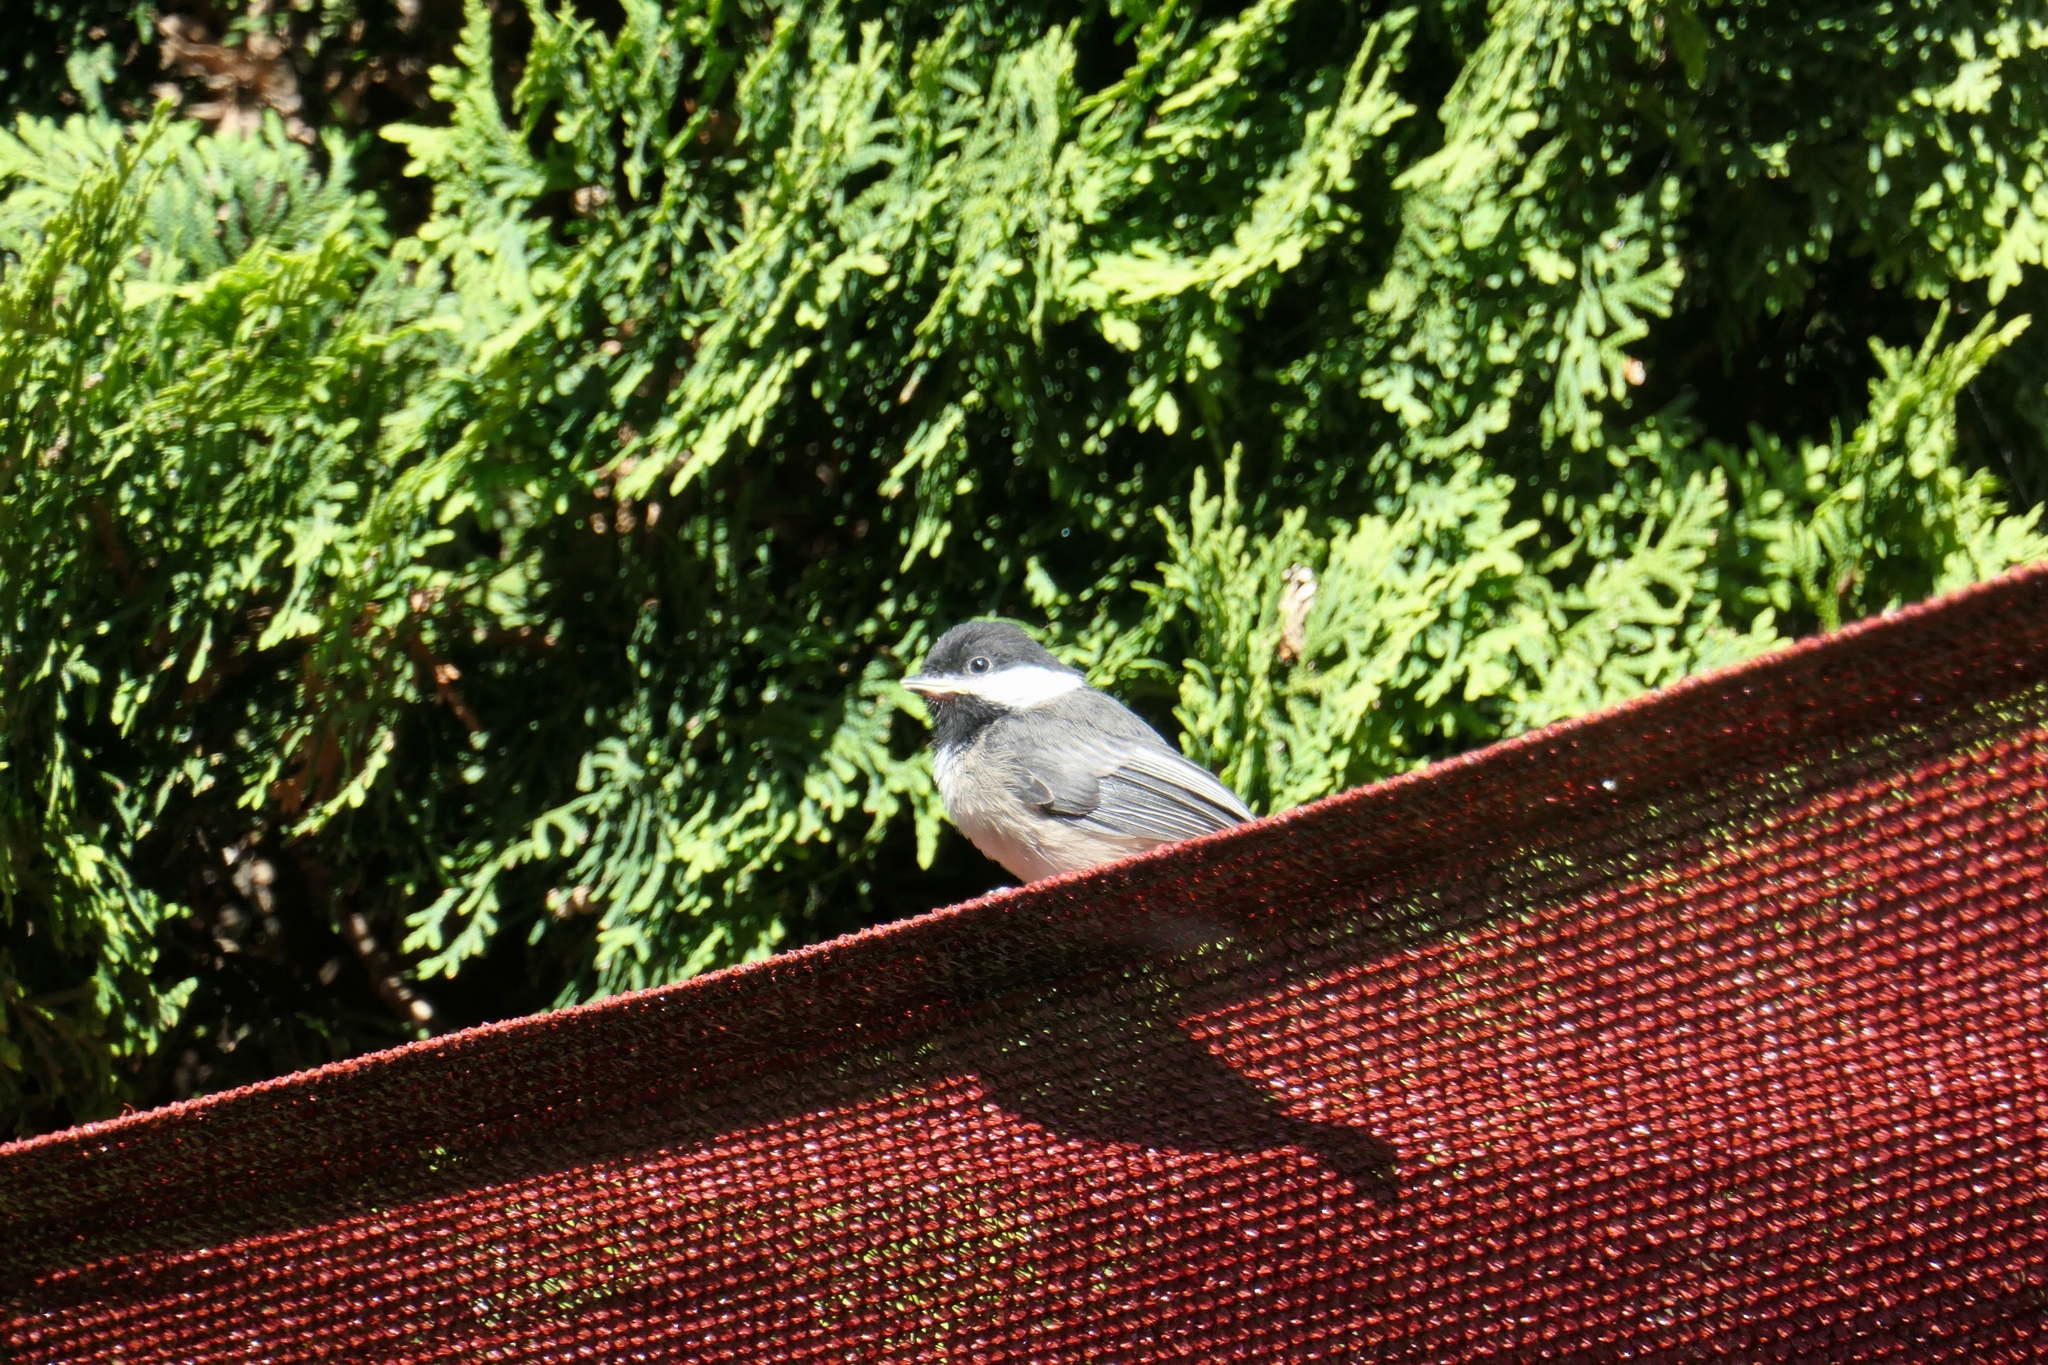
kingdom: Animalia
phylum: Chordata
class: Aves
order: Passeriformes
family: Paridae
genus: Poecile
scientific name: Poecile atricapillus
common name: Black-capped chickadee
